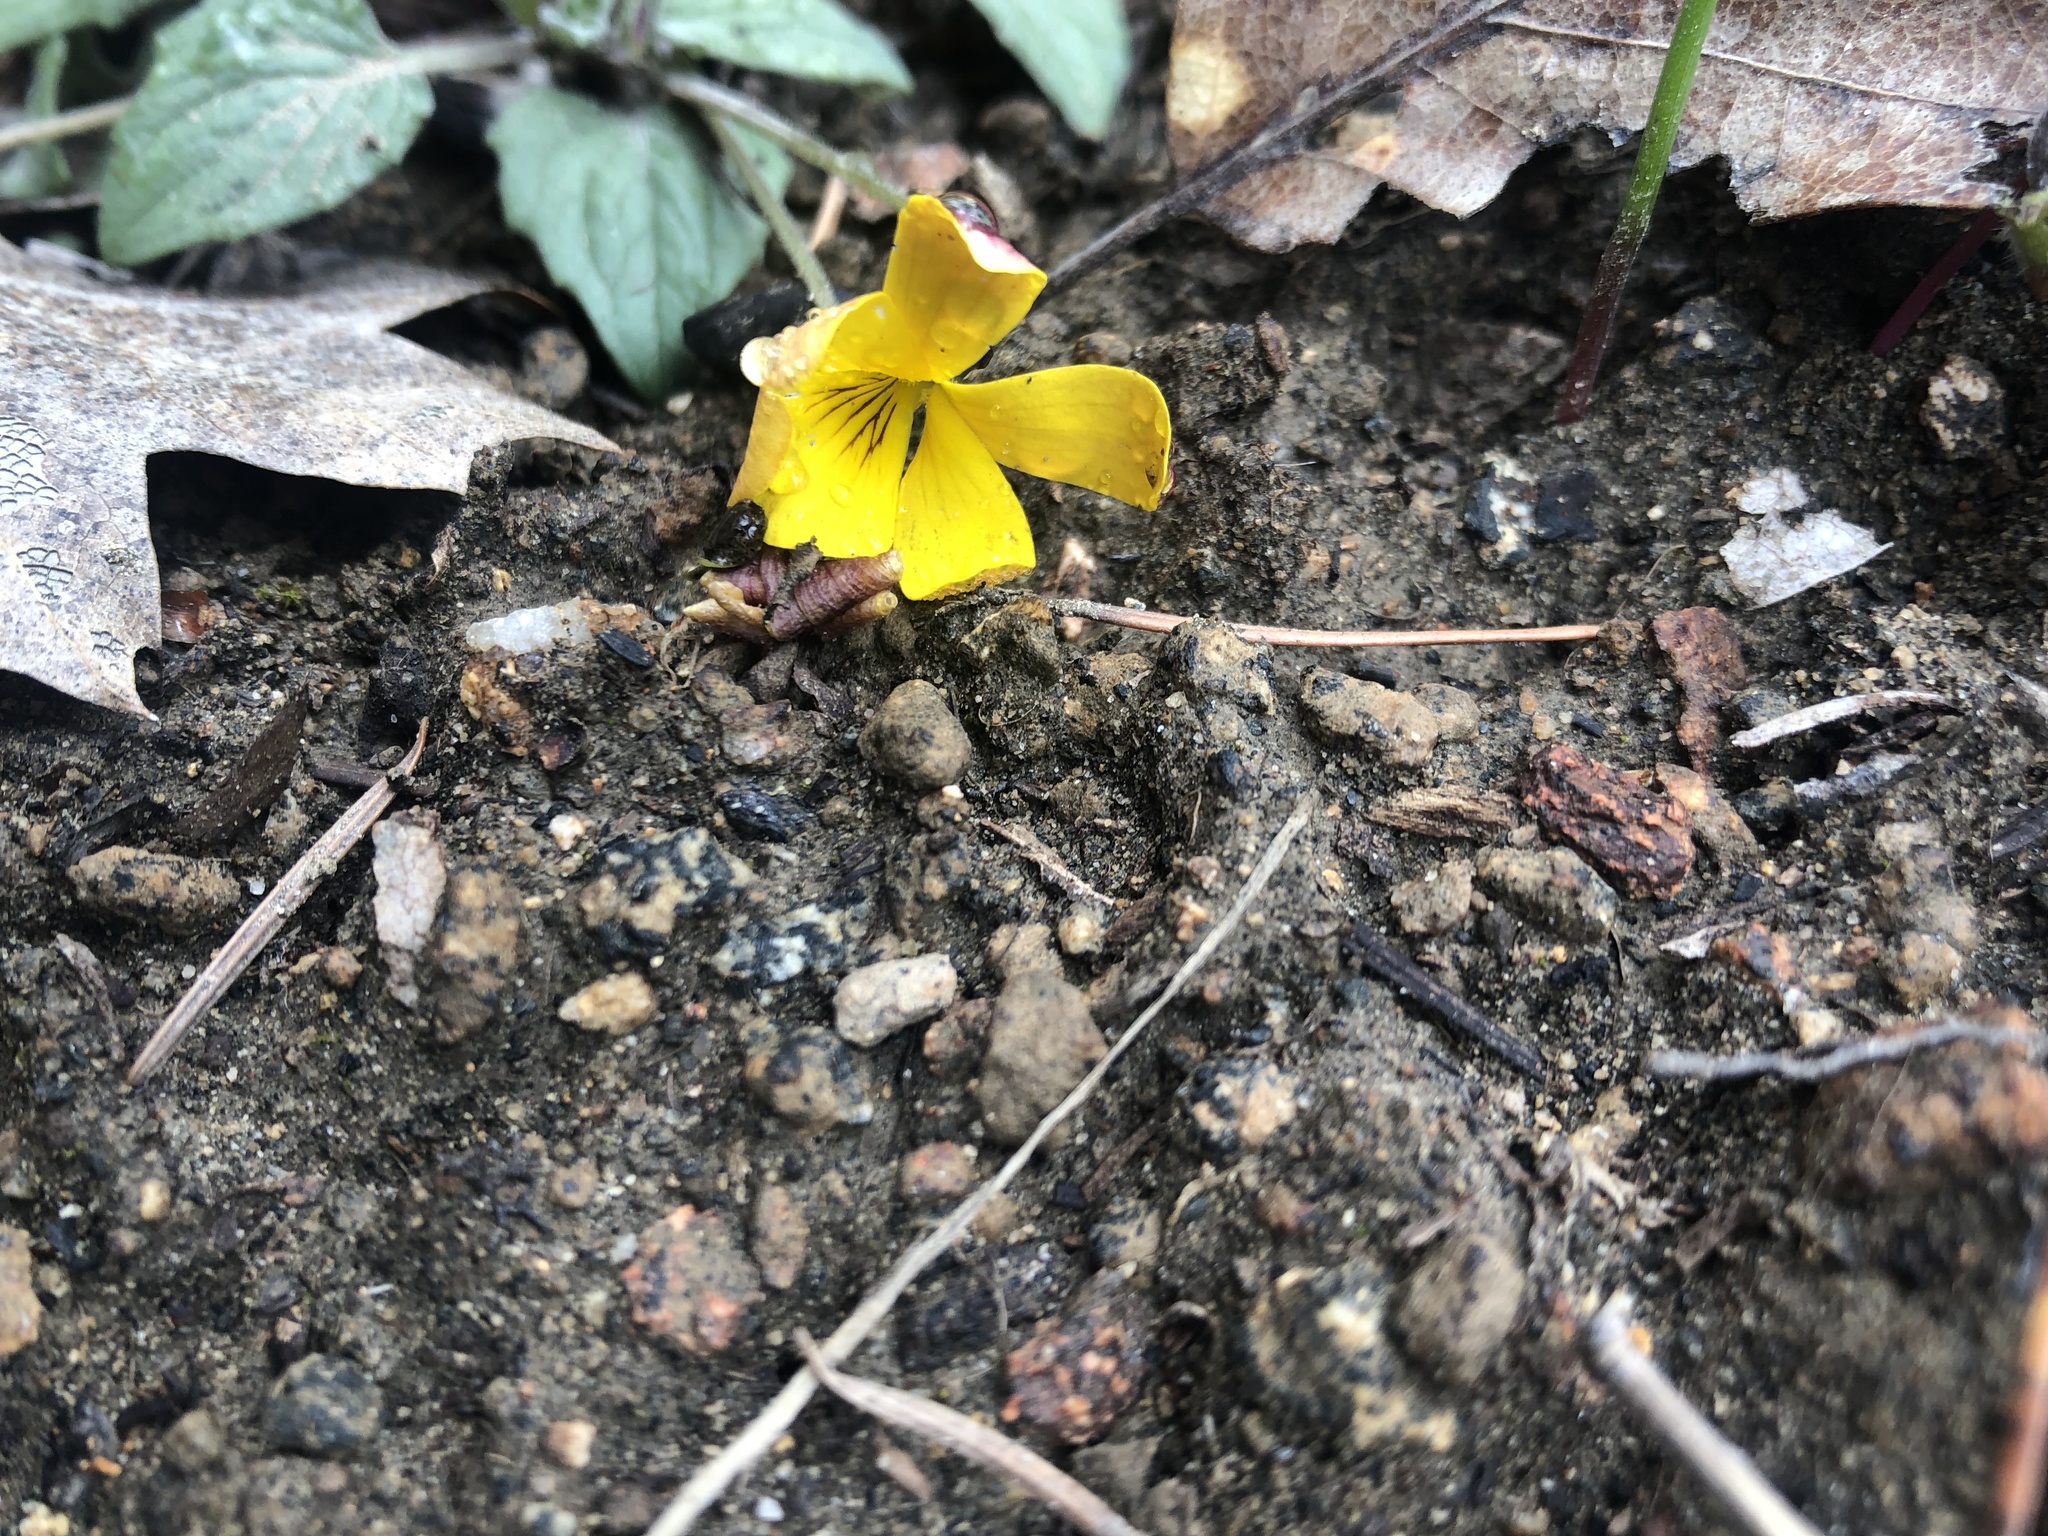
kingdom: Plantae
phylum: Tracheophyta
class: Magnoliopsida
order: Malpighiales
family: Violaceae
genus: Viola
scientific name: Viola purpurea
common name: Pine violet
